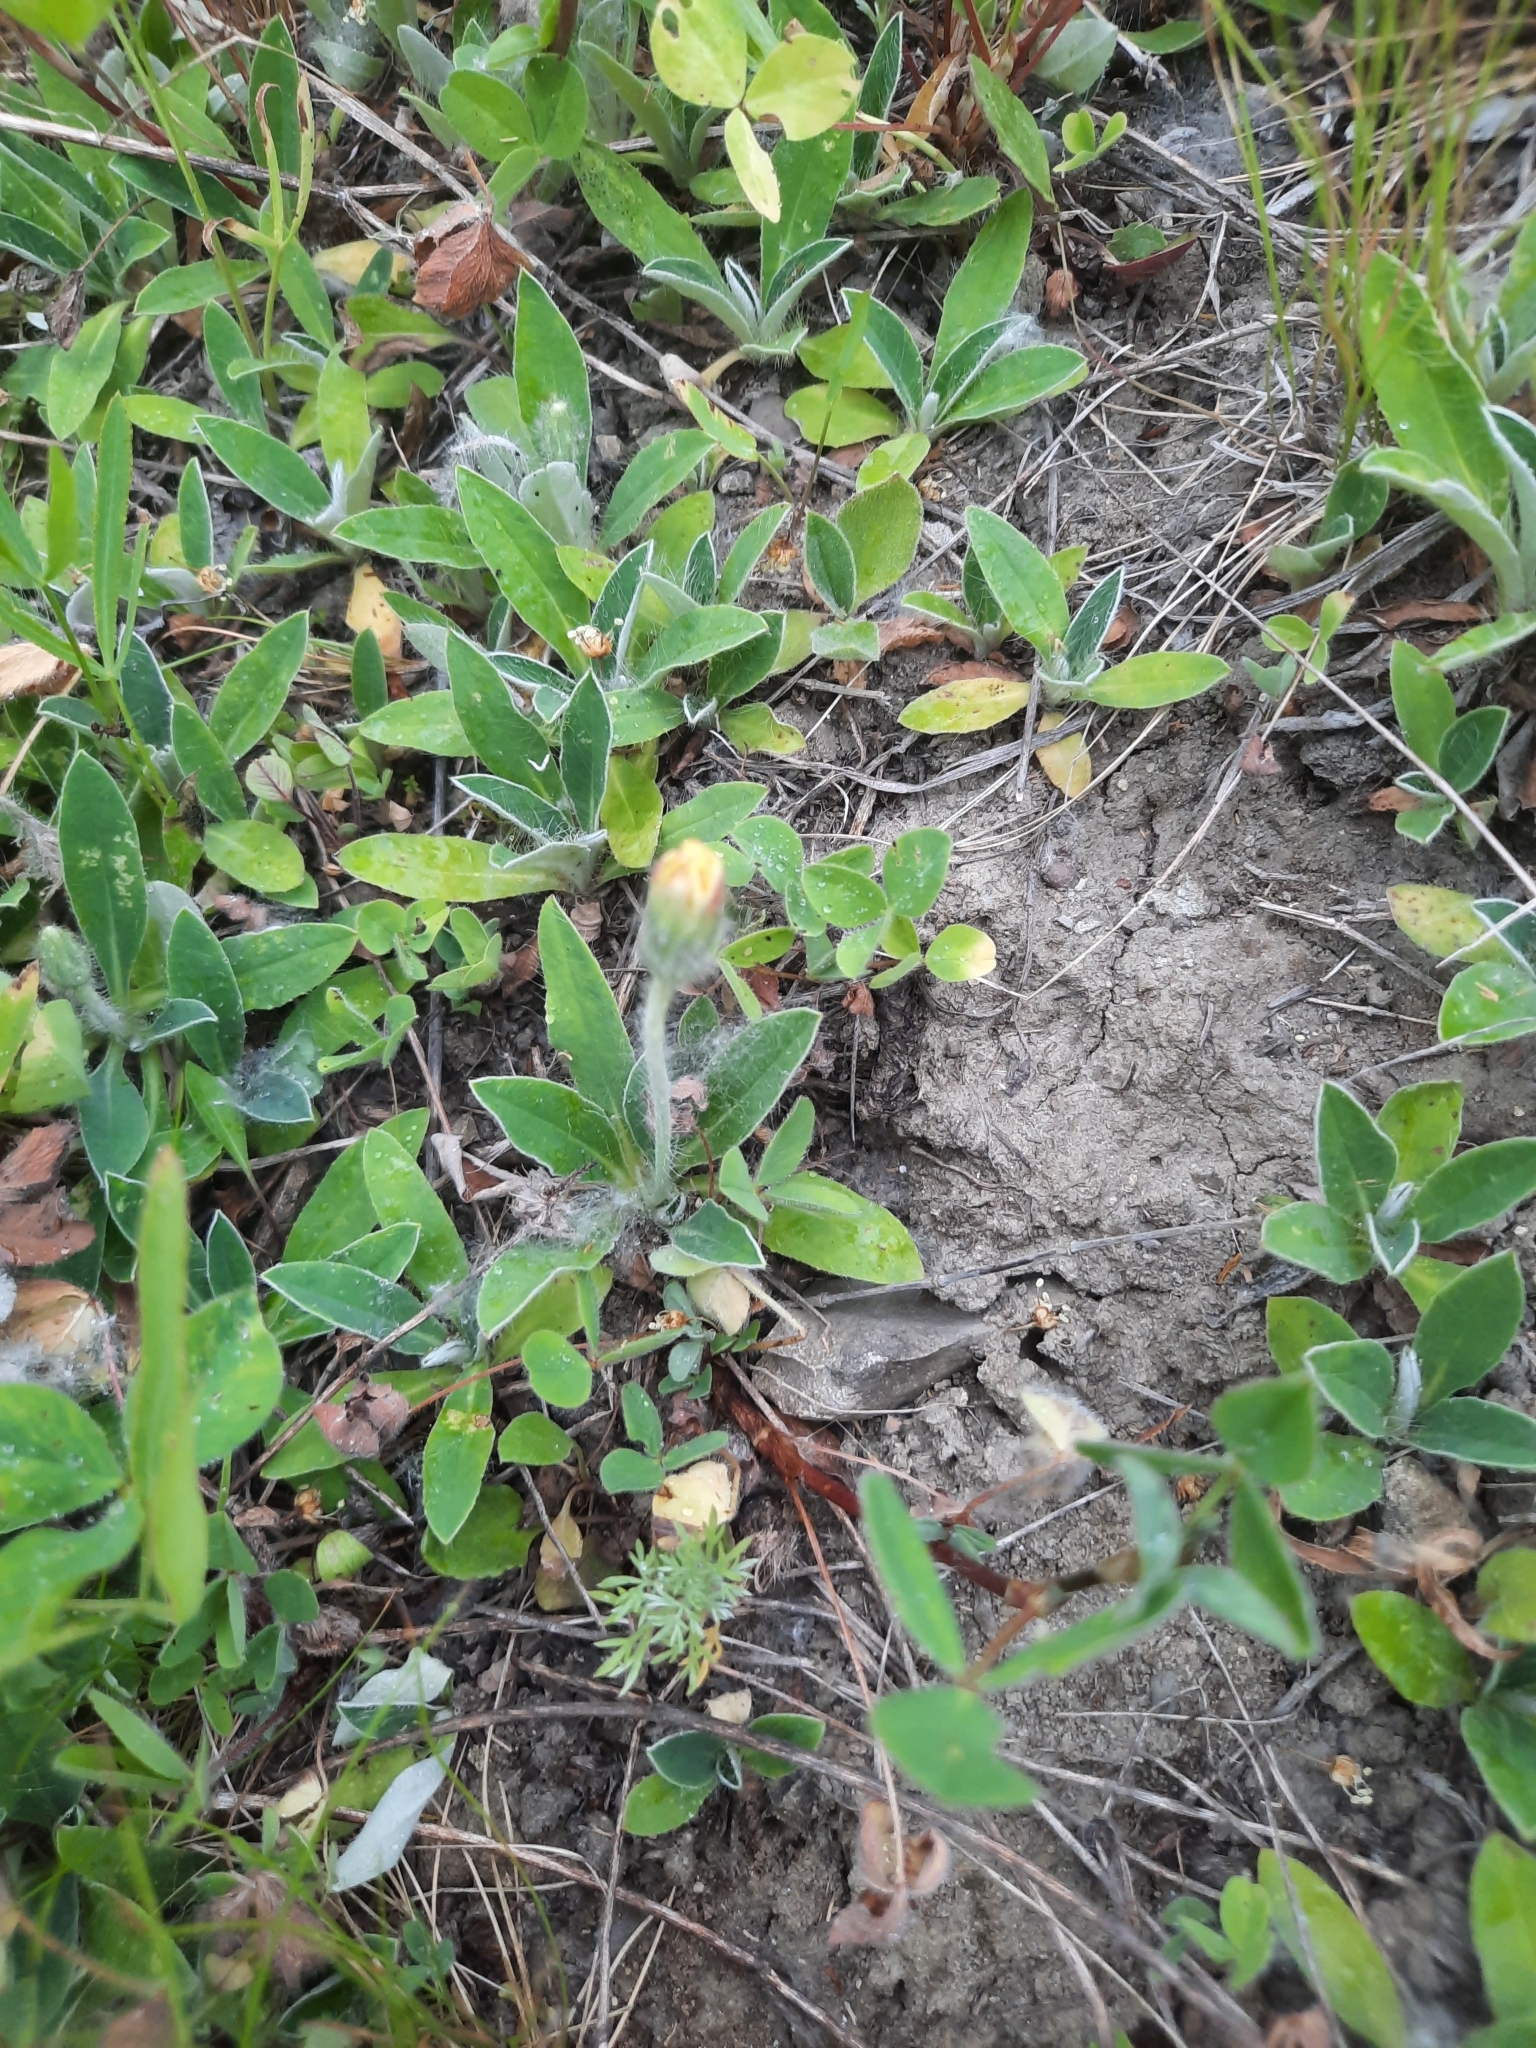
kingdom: Plantae
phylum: Tracheophyta
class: Magnoliopsida
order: Asterales
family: Asteraceae
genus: Pilosella
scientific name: Pilosella officinarum
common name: Mouse-ear hawkweed
